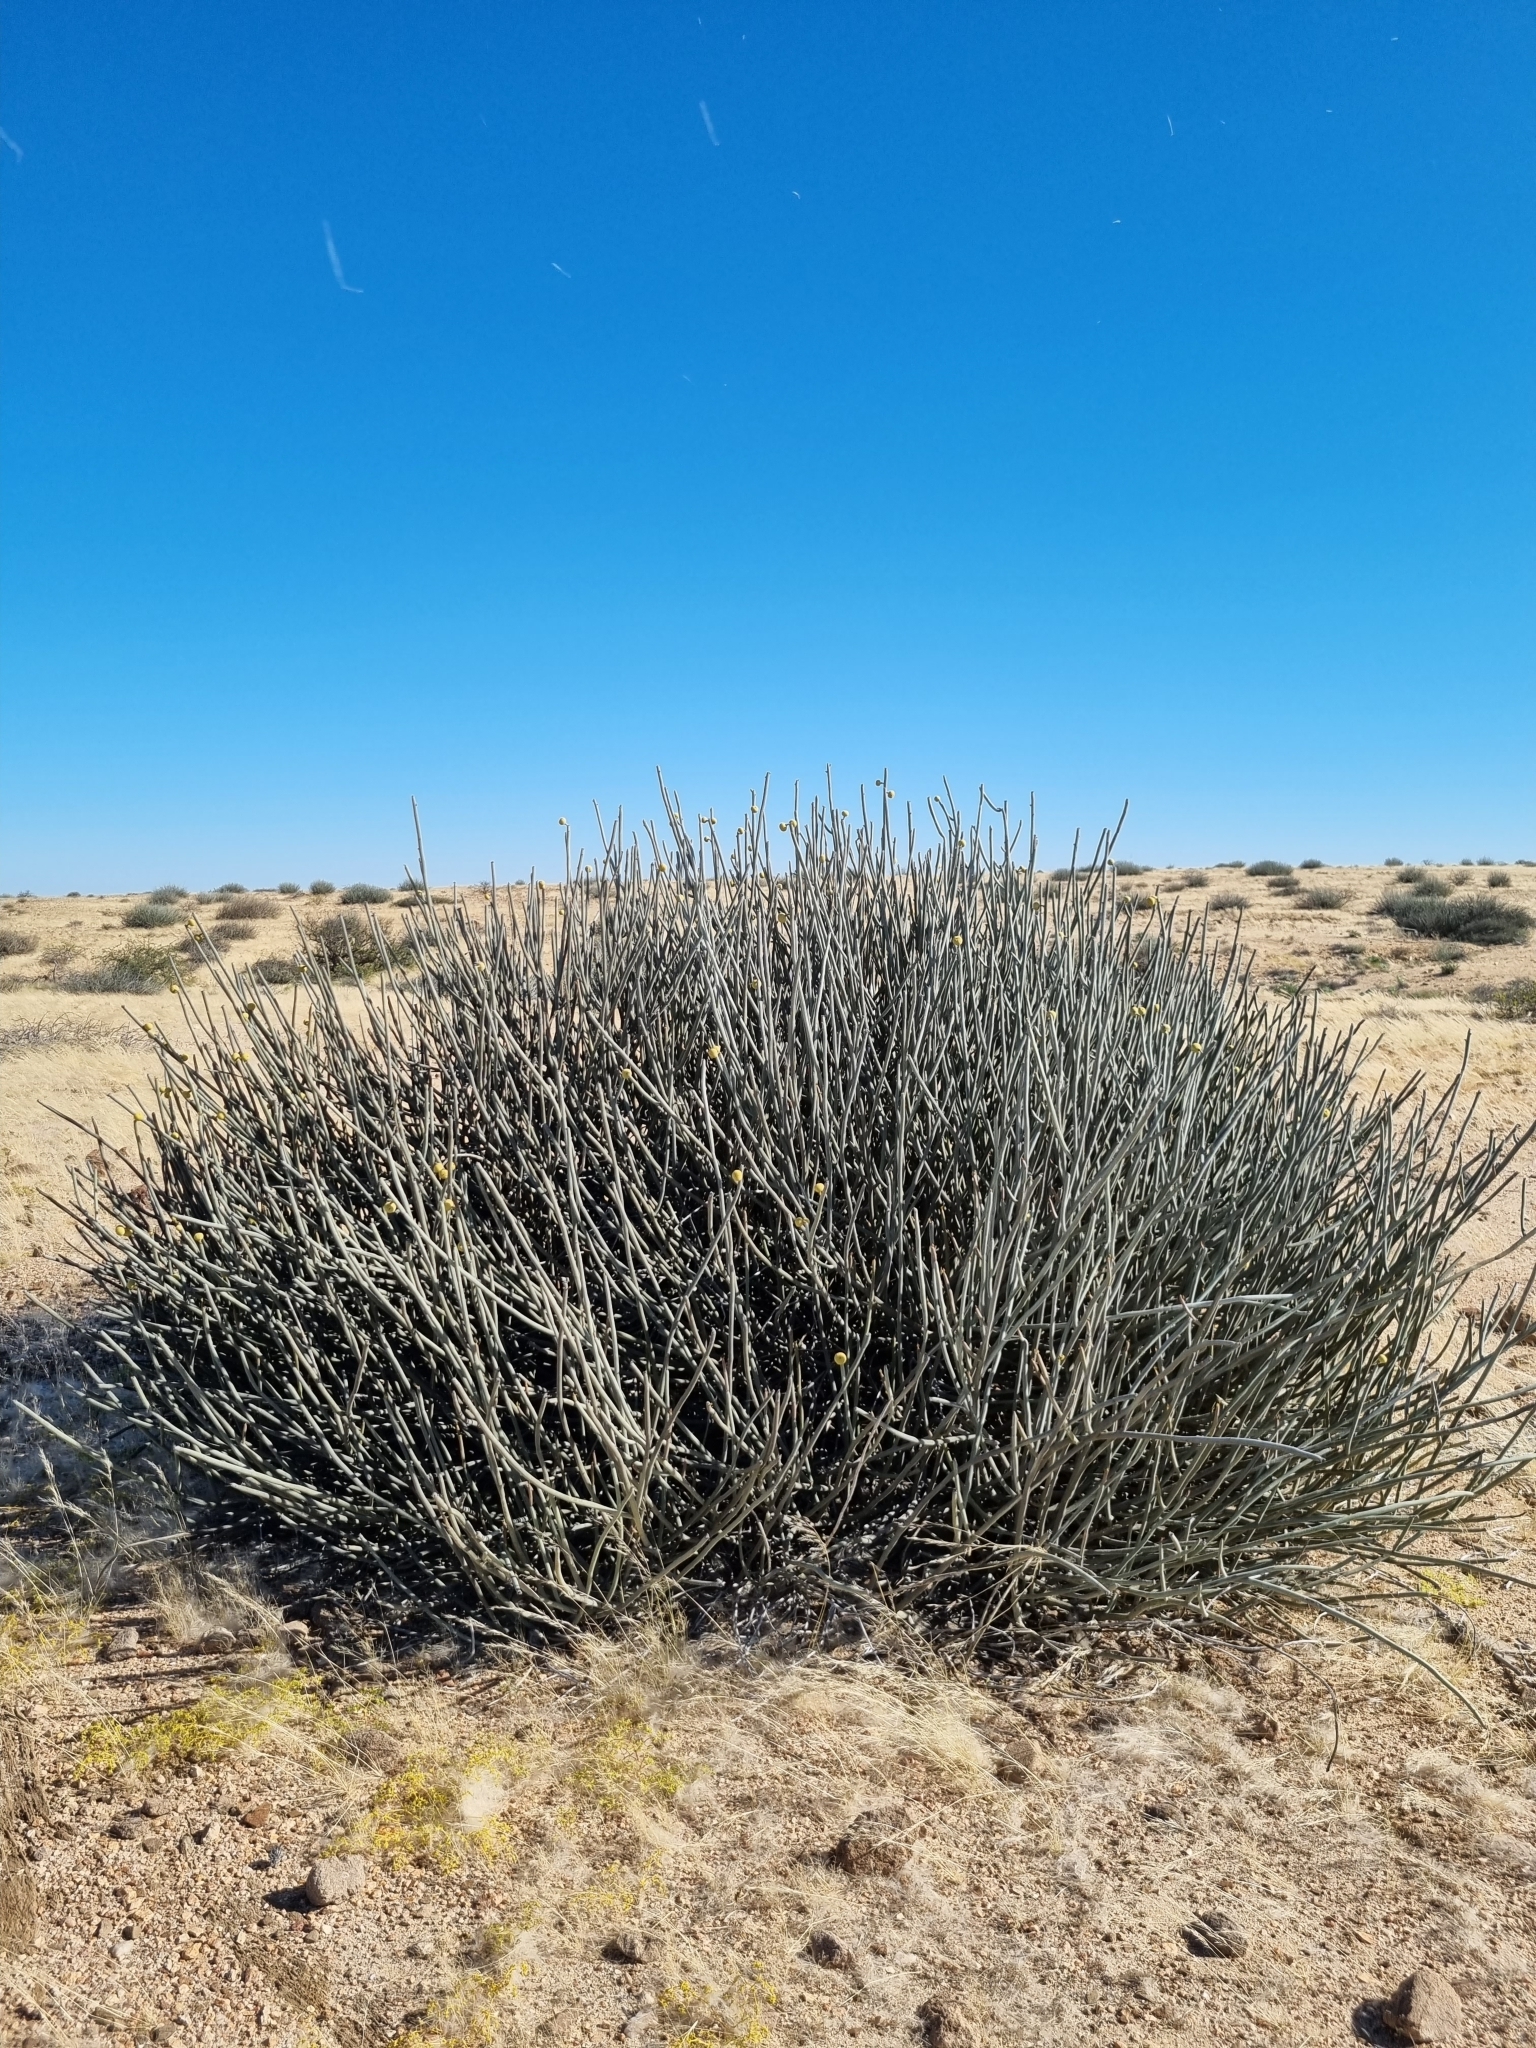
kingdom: Plantae
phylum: Tracheophyta
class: Magnoliopsida
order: Malpighiales
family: Euphorbiaceae
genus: Euphorbia
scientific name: Euphorbia damarana
